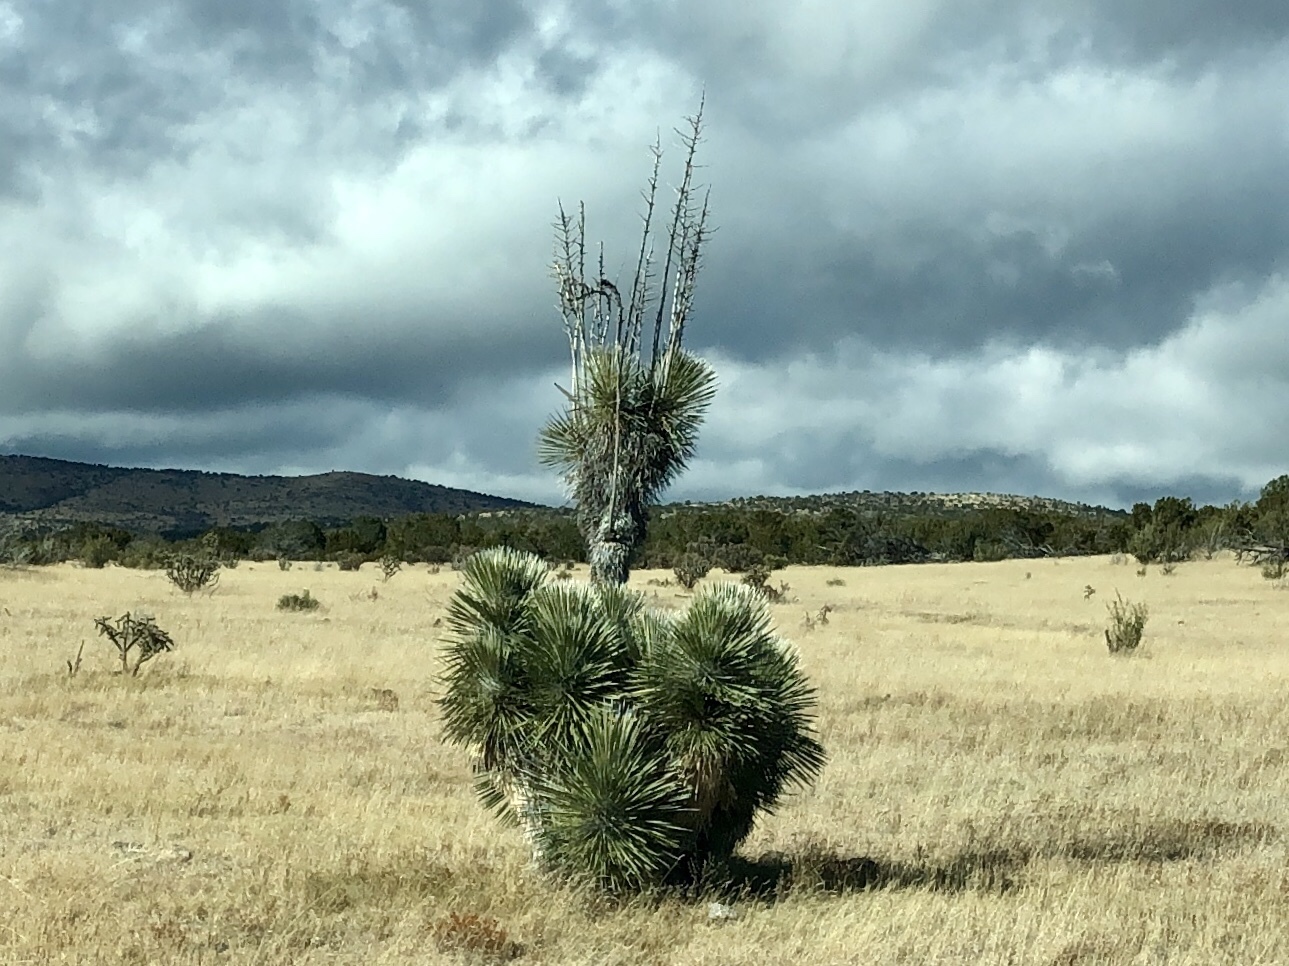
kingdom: Plantae
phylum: Tracheophyta
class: Liliopsida
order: Asparagales
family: Asparagaceae
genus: Yucca
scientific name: Yucca elata
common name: Palmella
